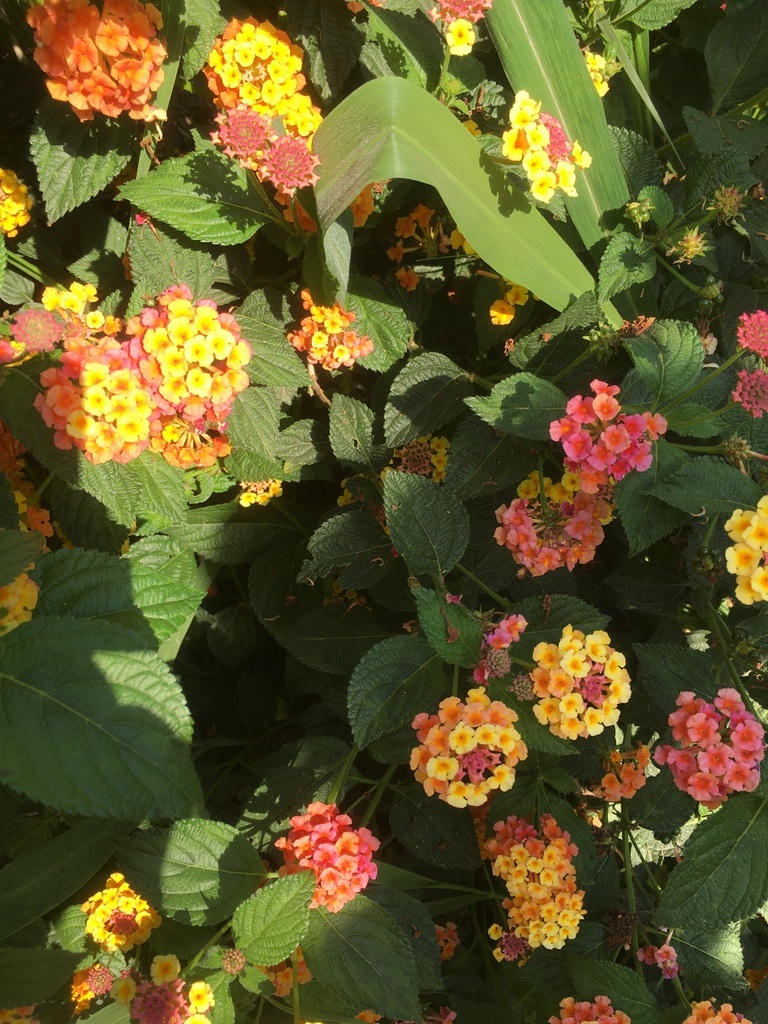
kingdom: Plantae
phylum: Tracheophyta
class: Magnoliopsida
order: Lamiales
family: Verbenaceae
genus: Lantana
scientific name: Lantana camara
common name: Lantana
